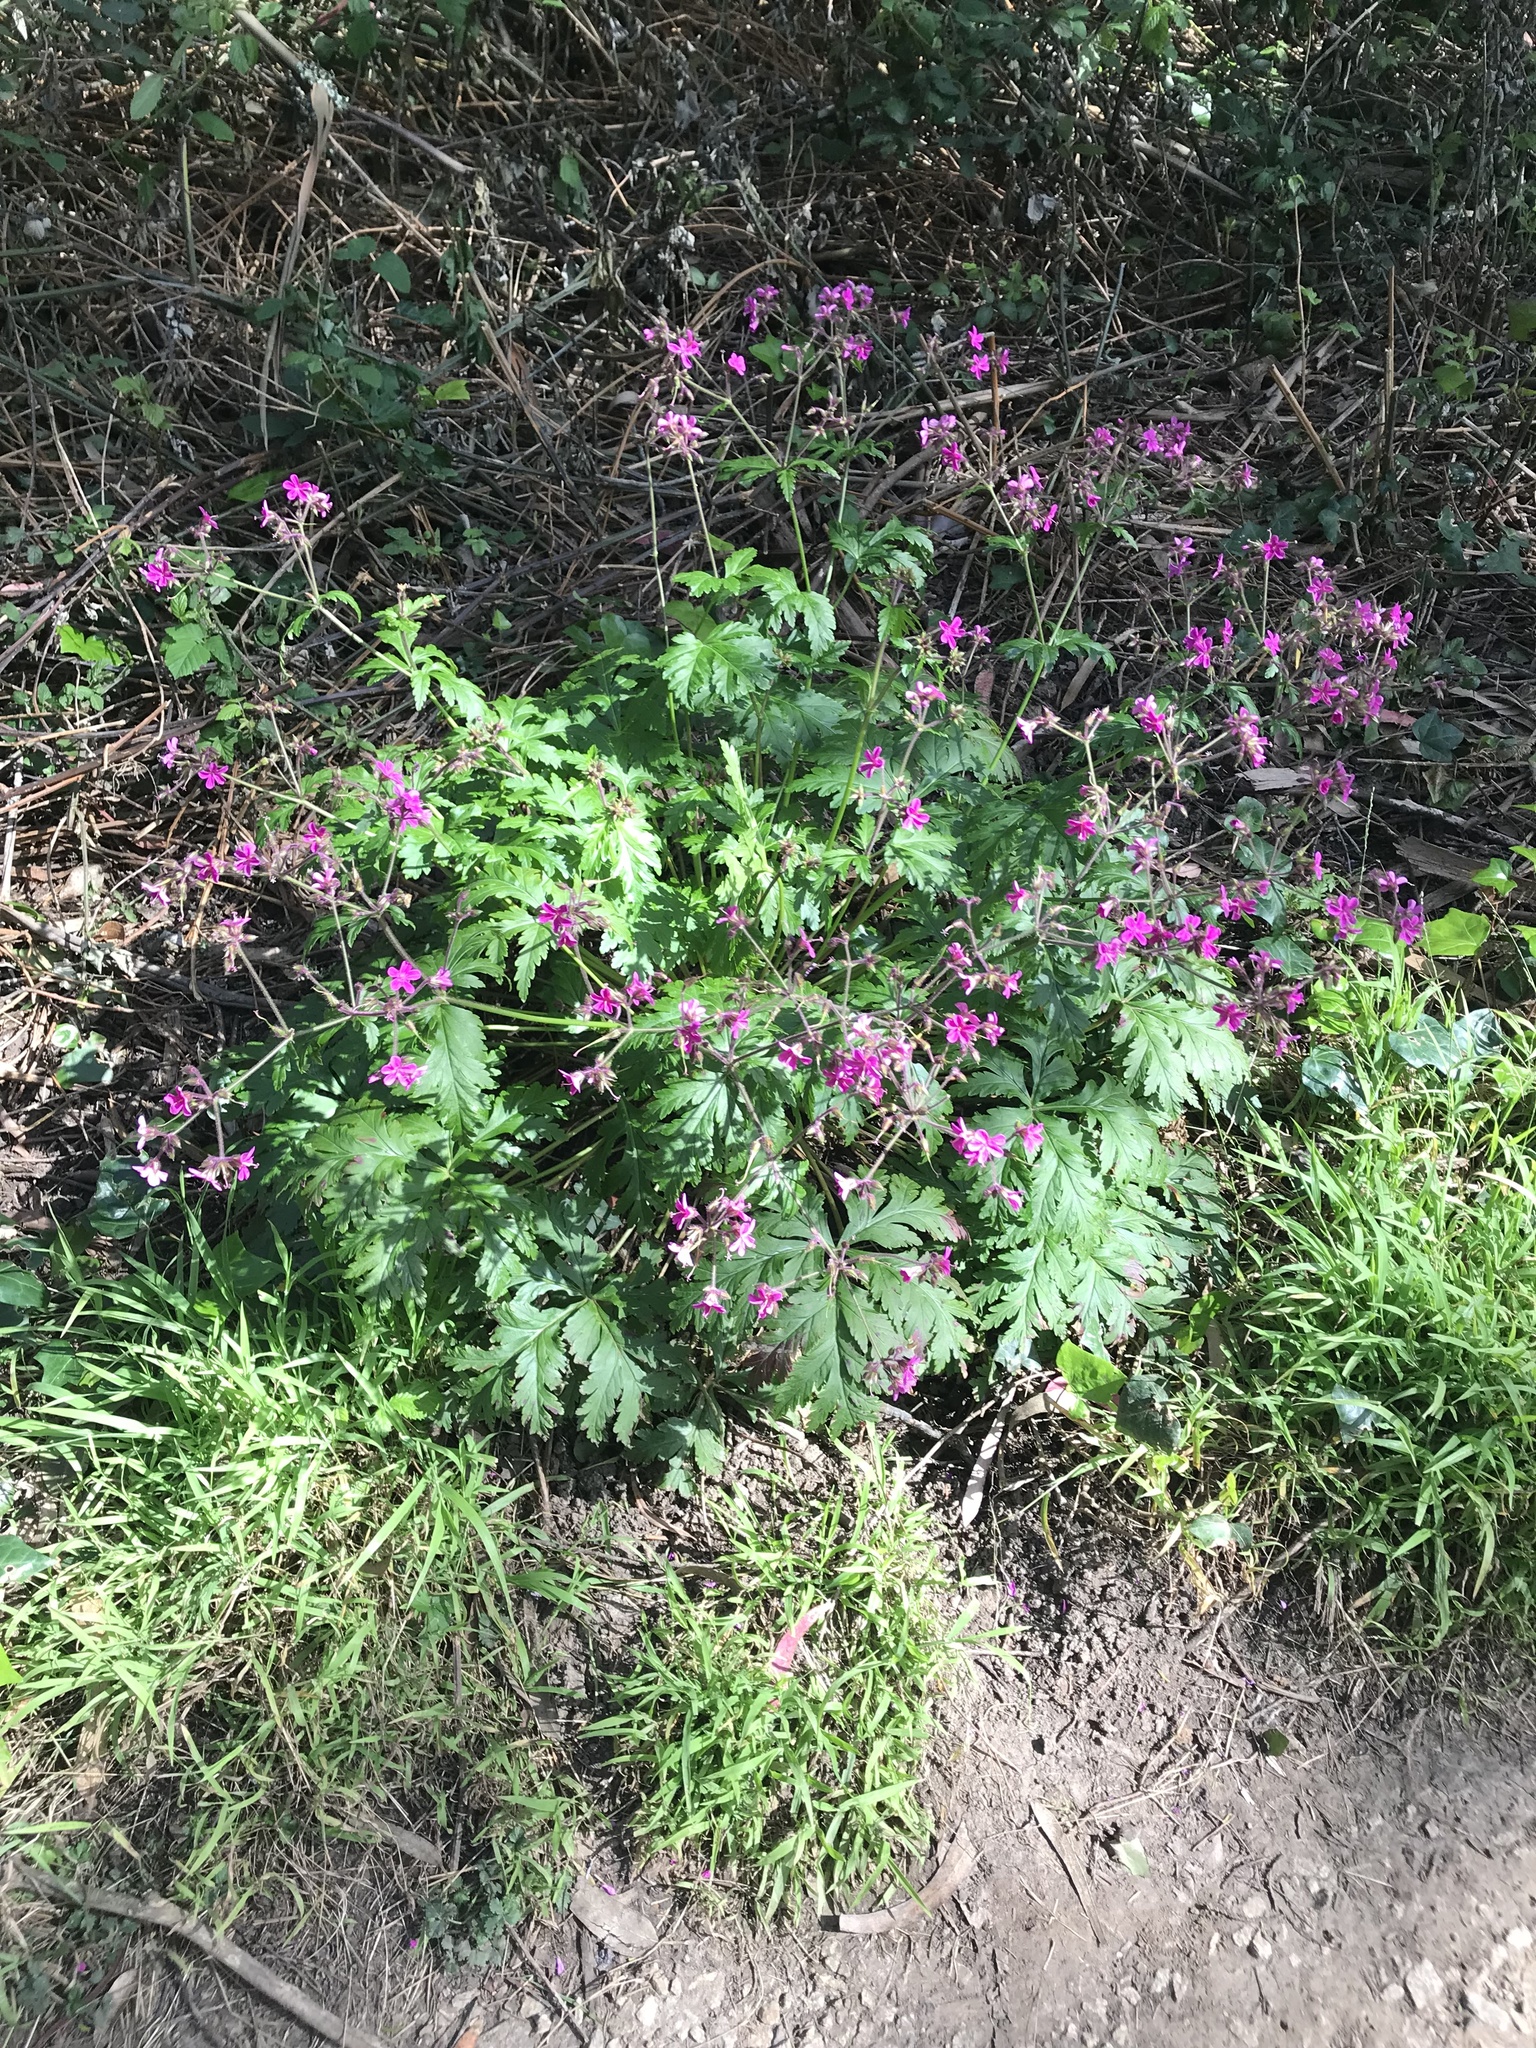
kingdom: Plantae
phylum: Tracheophyta
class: Magnoliopsida
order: Geraniales
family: Geraniaceae
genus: Geranium
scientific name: Geranium reuteri
